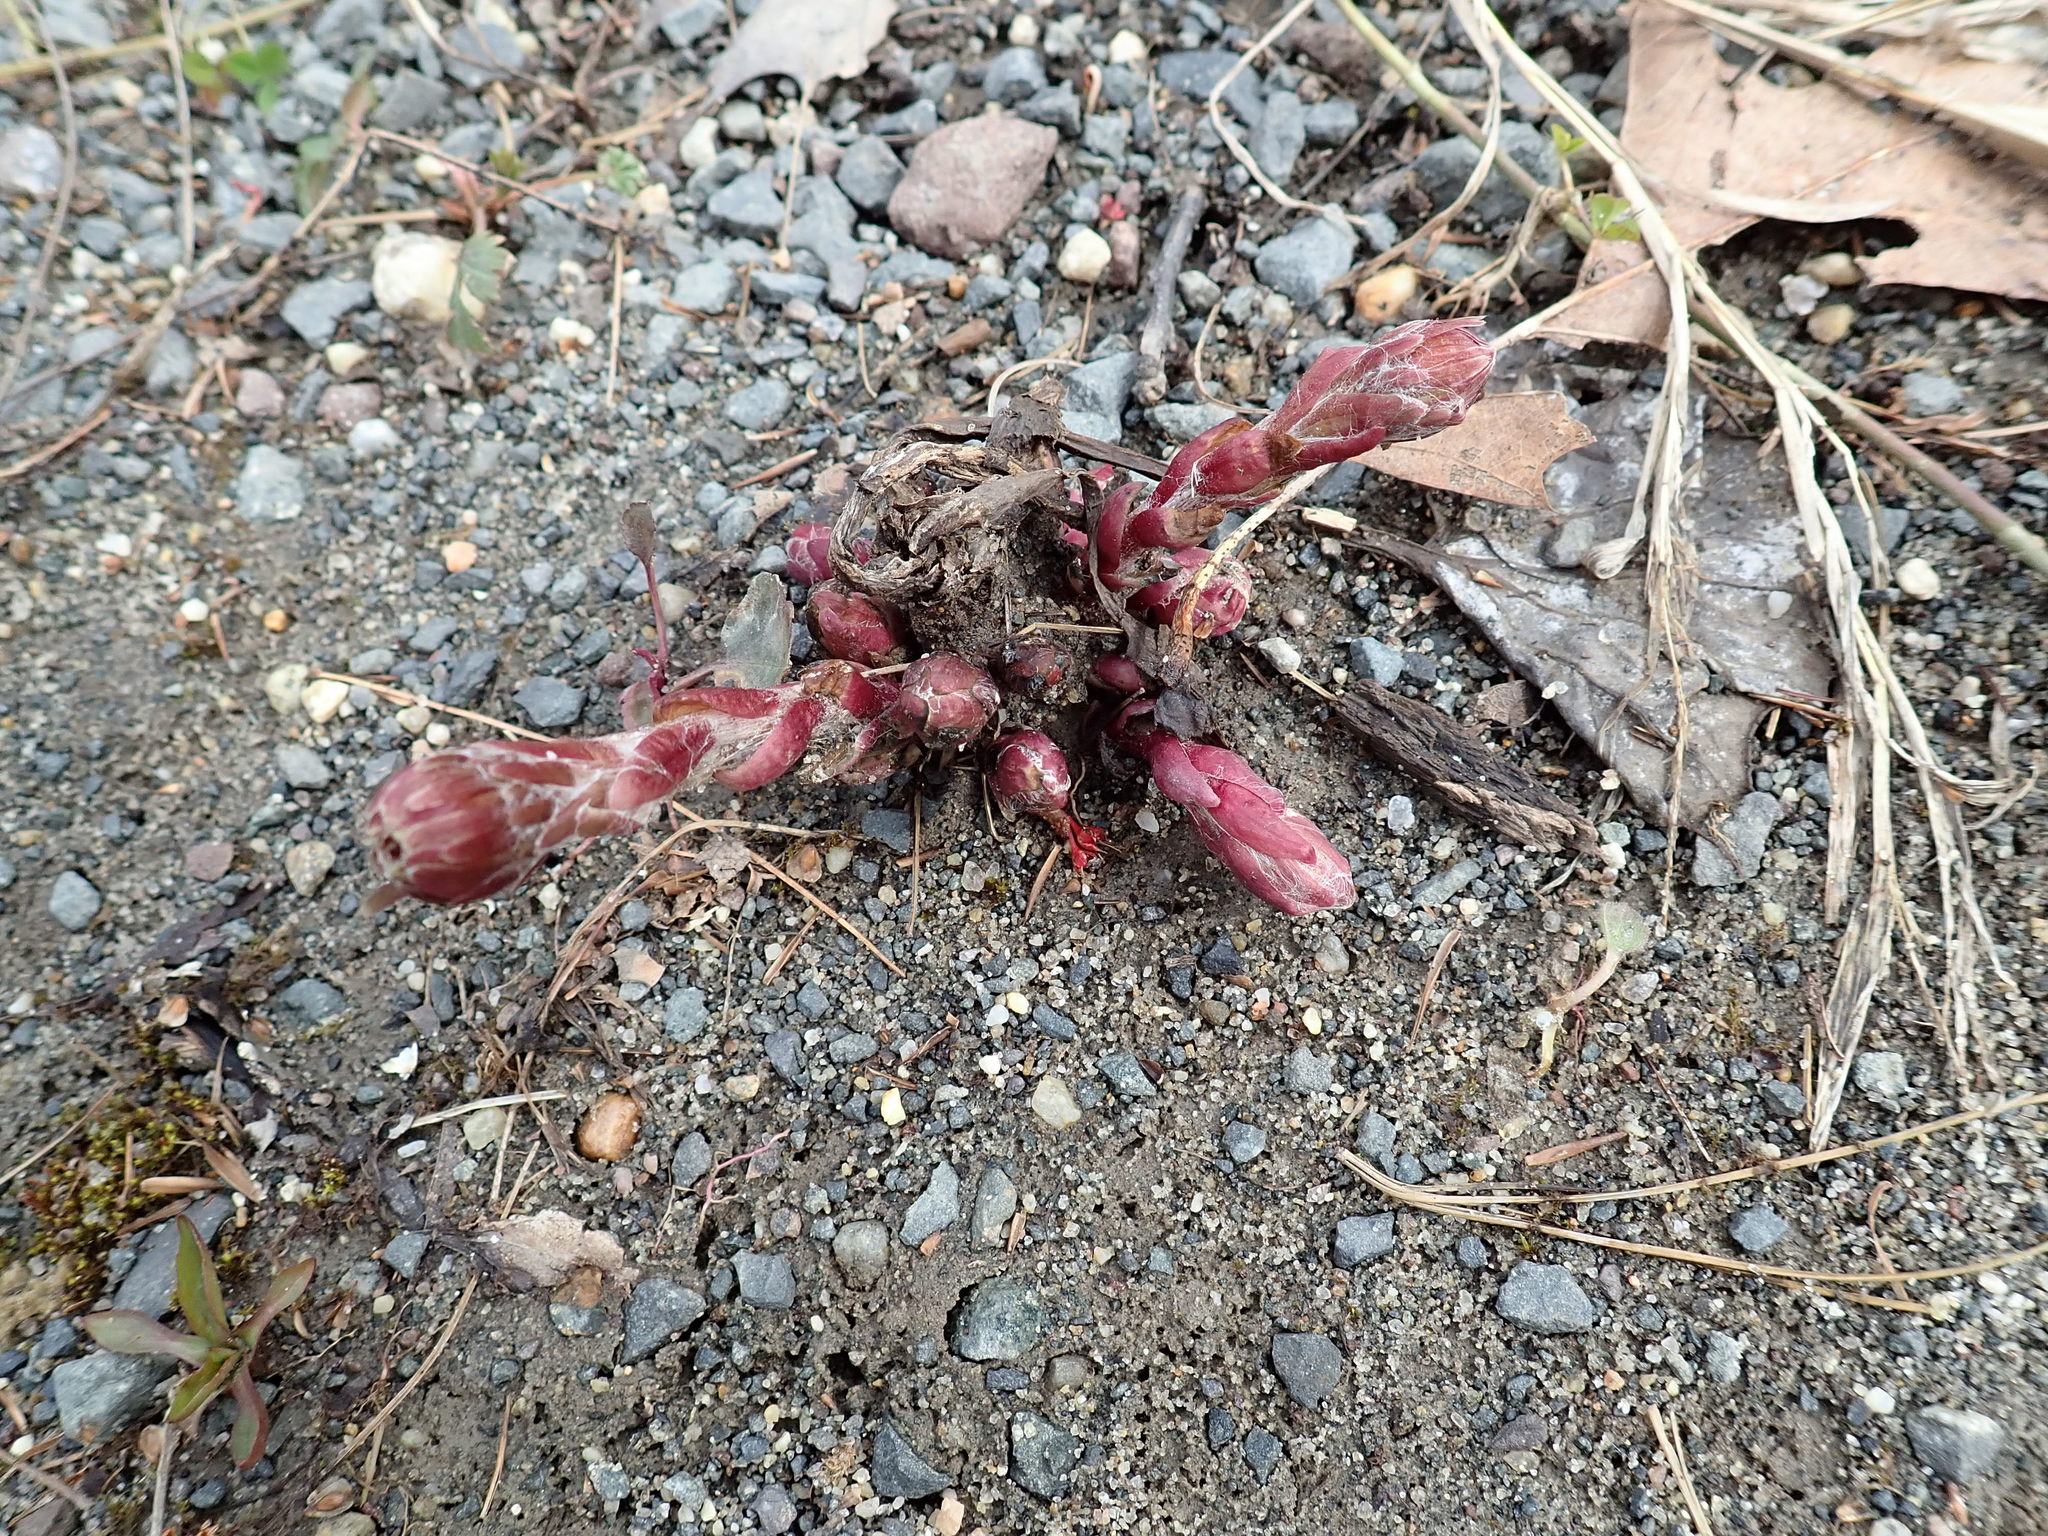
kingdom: Plantae
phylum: Tracheophyta
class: Magnoliopsida
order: Asterales
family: Asteraceae
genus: Tussilago
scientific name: Tussilago farfara
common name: Coltsfoot
